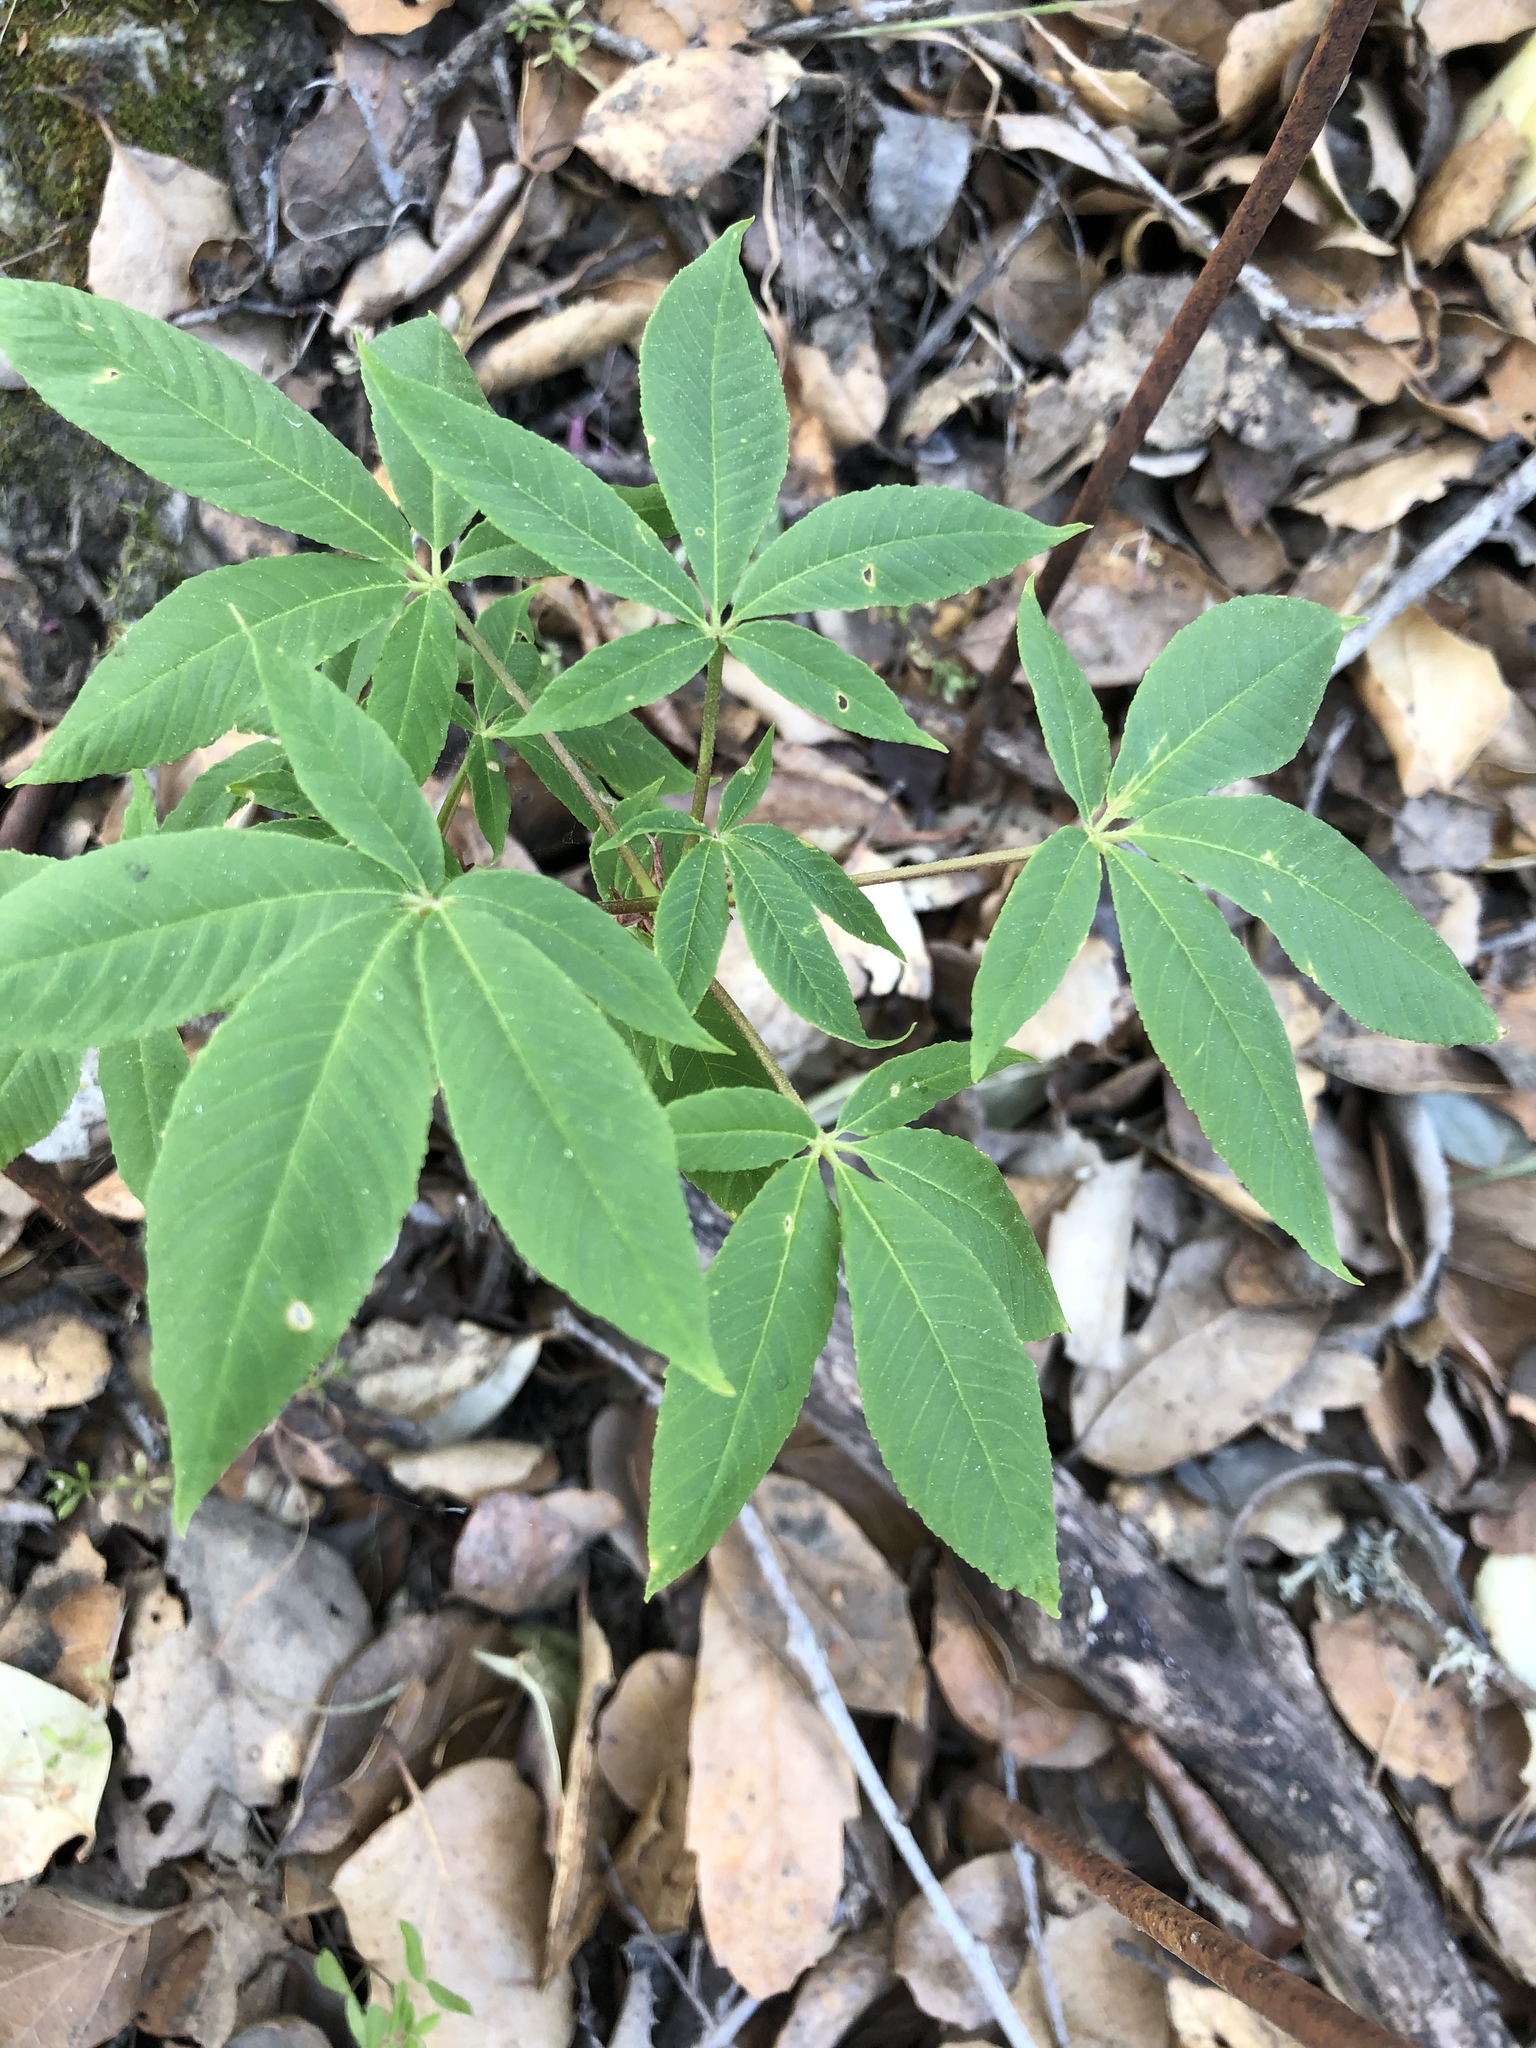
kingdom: Plantae
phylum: Tracheophyta
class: Magnoliopsida
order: Sapindales
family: Sapindaceae
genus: Aesculus
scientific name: Aesculus californica
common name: California buckeye
